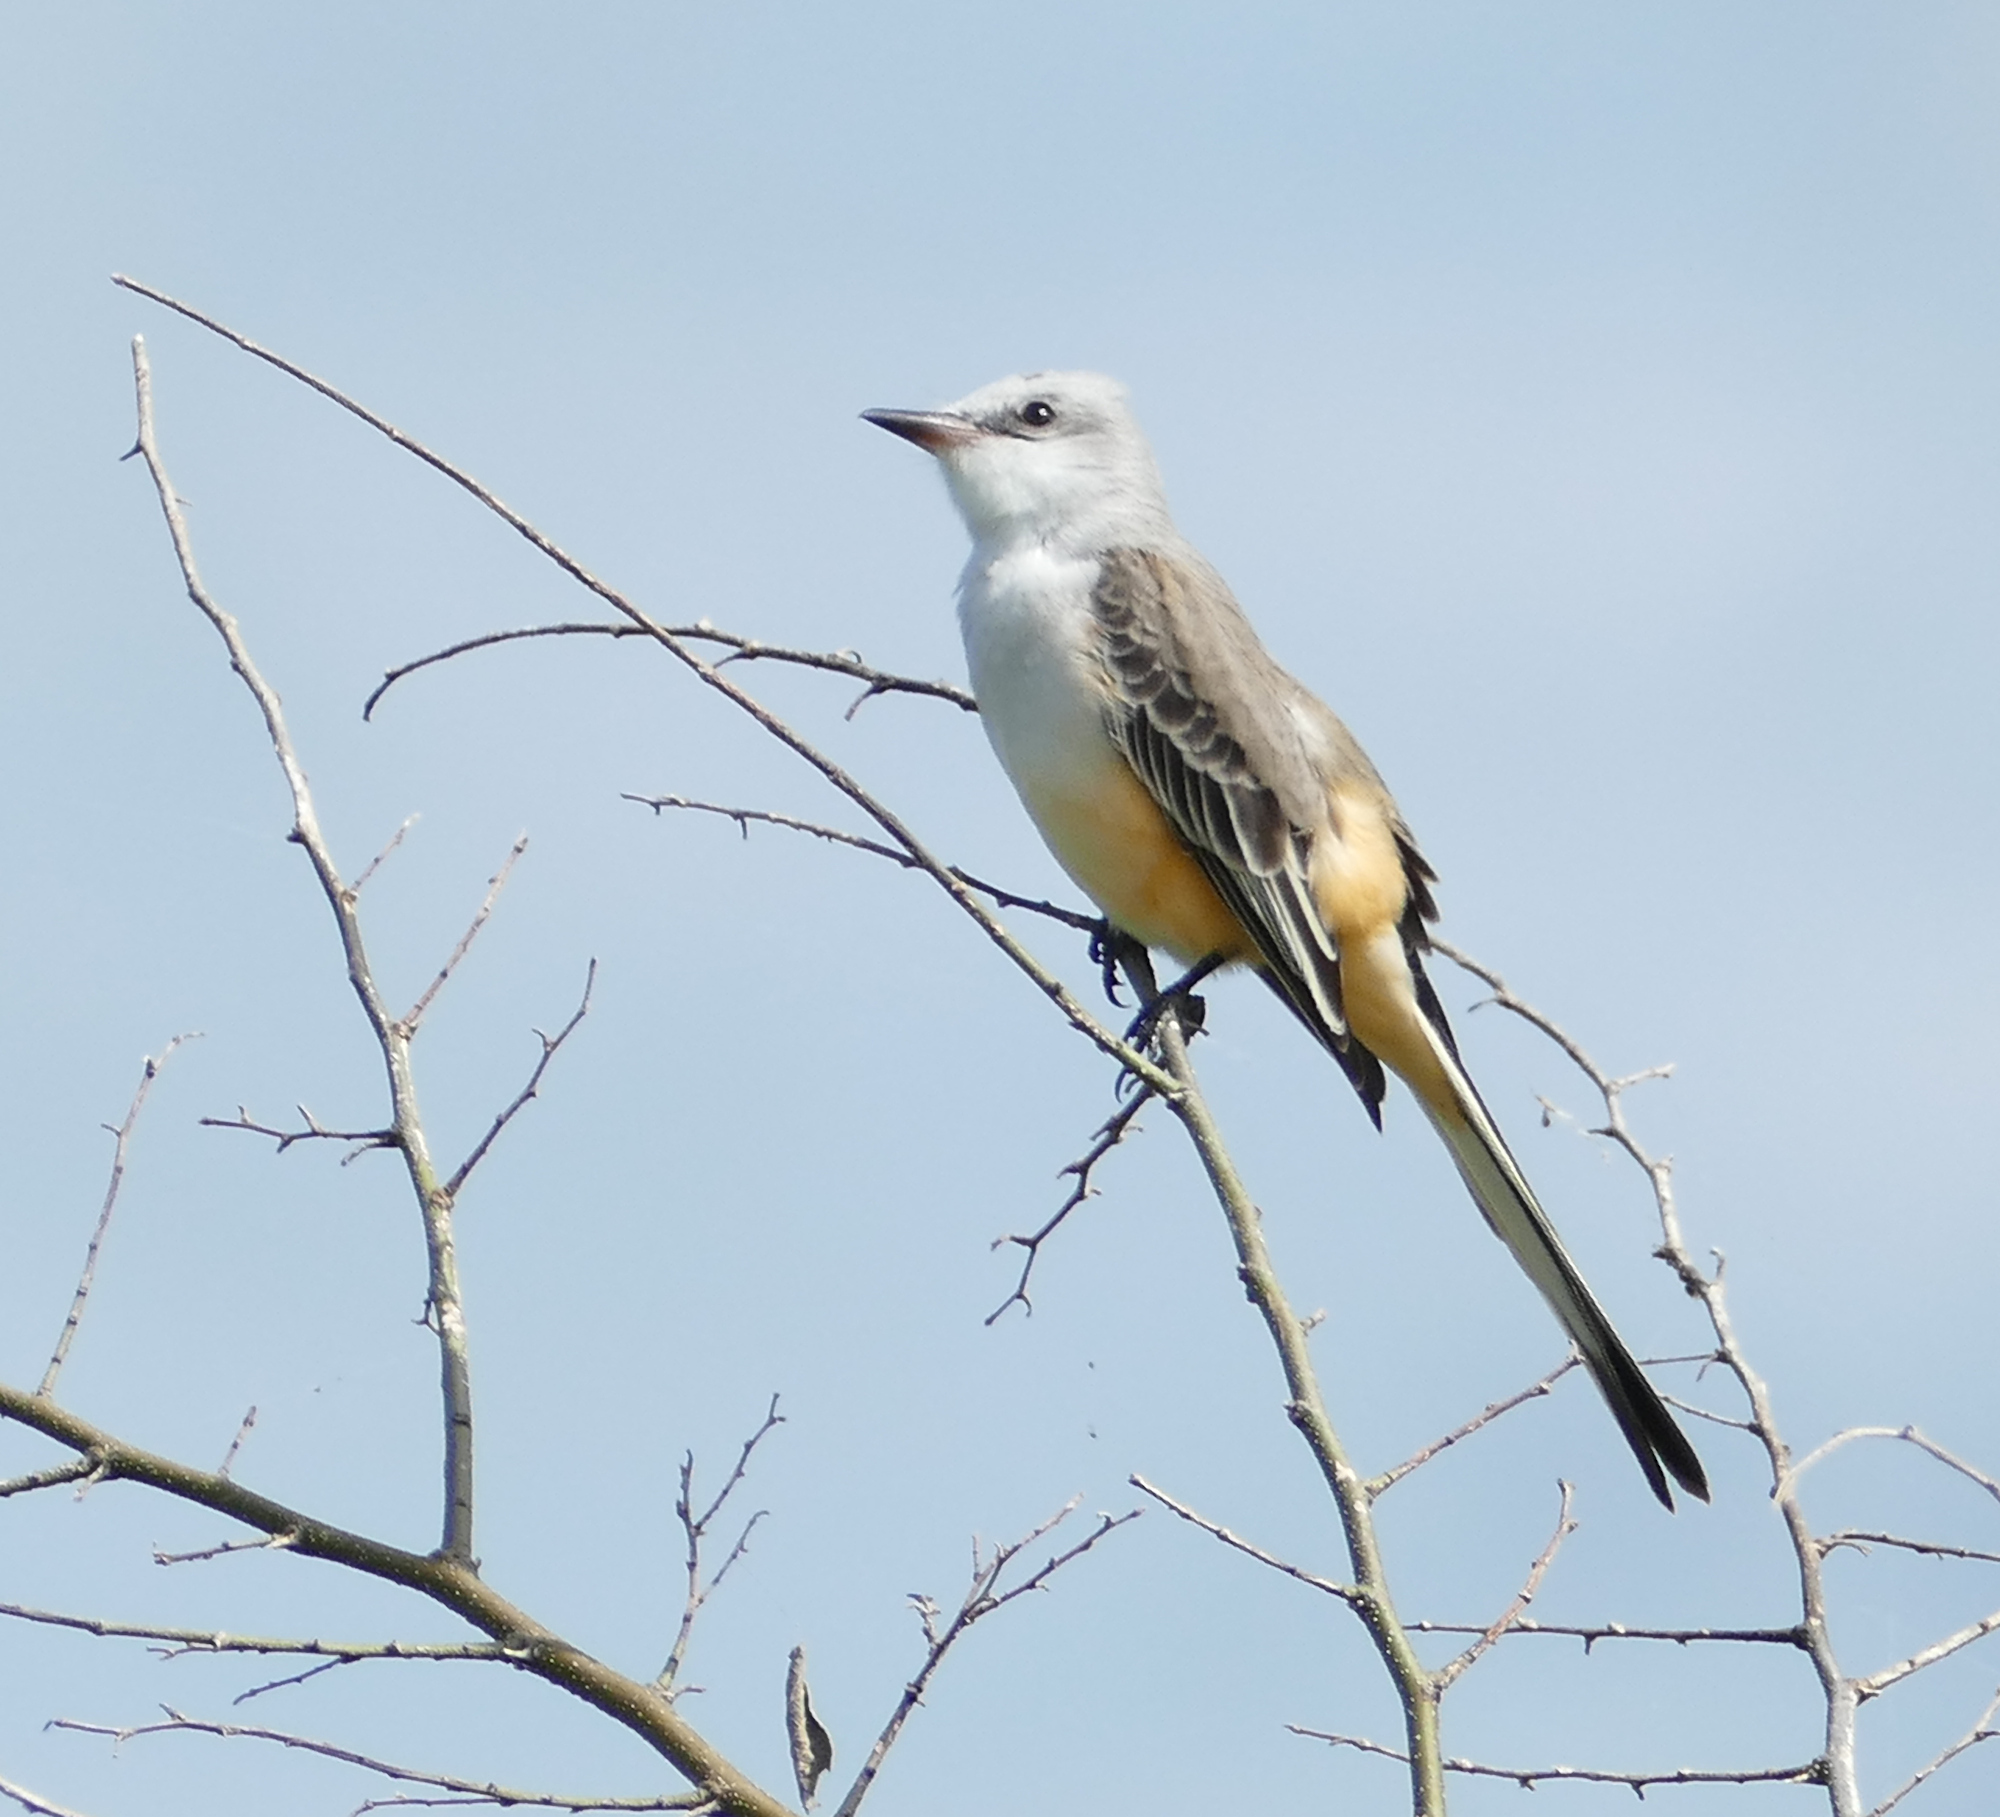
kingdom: Animalia
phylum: Chordata
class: Aves
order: Passeriformes
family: Tyrannidae
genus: Tyrannus
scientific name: Tyrannus forficatus
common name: Scissor-tailed flycatcher
